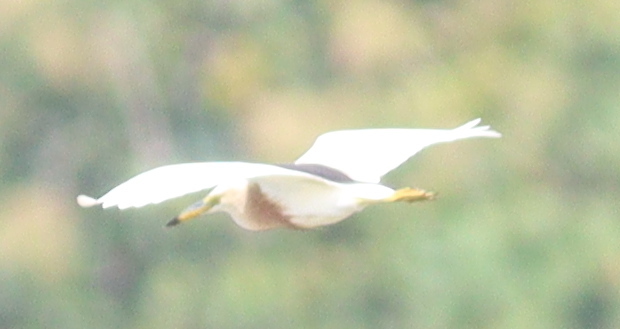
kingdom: Animalia
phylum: Chordata
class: Aves
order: Pelecaniformes
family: Ardeidae
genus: Ardeola
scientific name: Ardeola speciosa
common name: Javan pond heron
